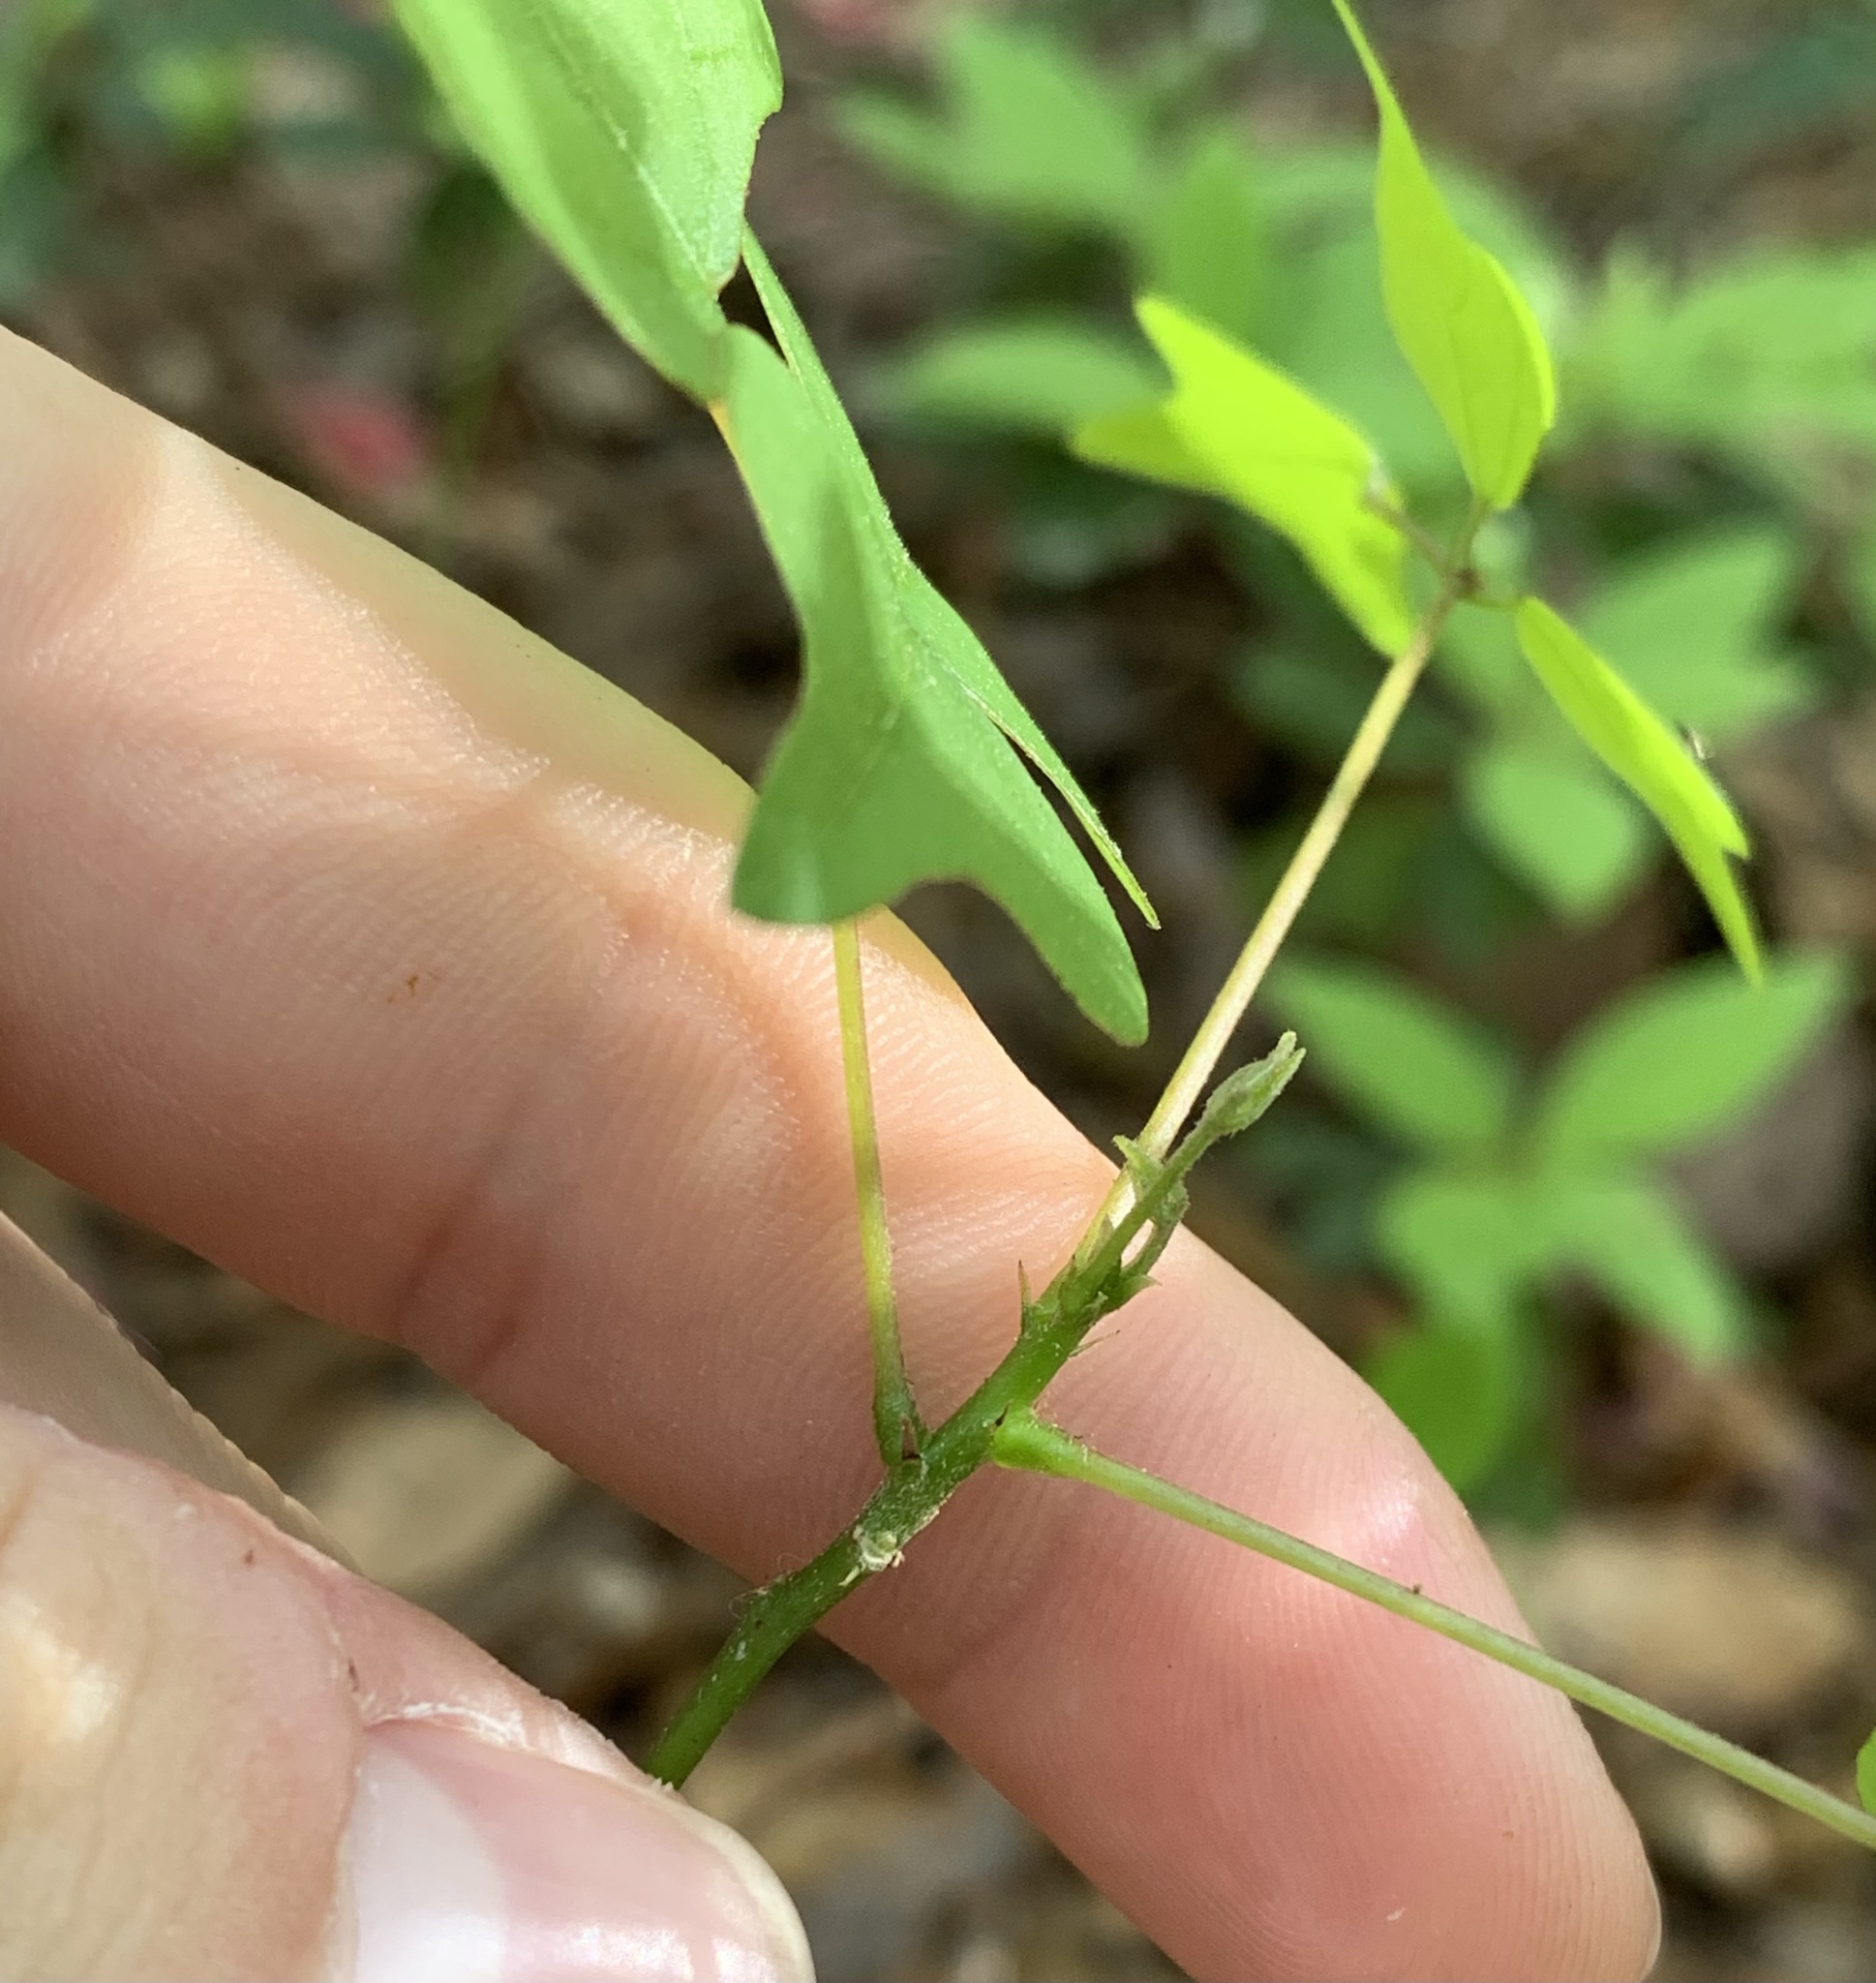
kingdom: Plantae
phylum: Tracheophyta
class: Magnoliopsida
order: Fabales
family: Fabaceae
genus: Erythrina
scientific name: Erythrina herbacea
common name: Coral-bean
